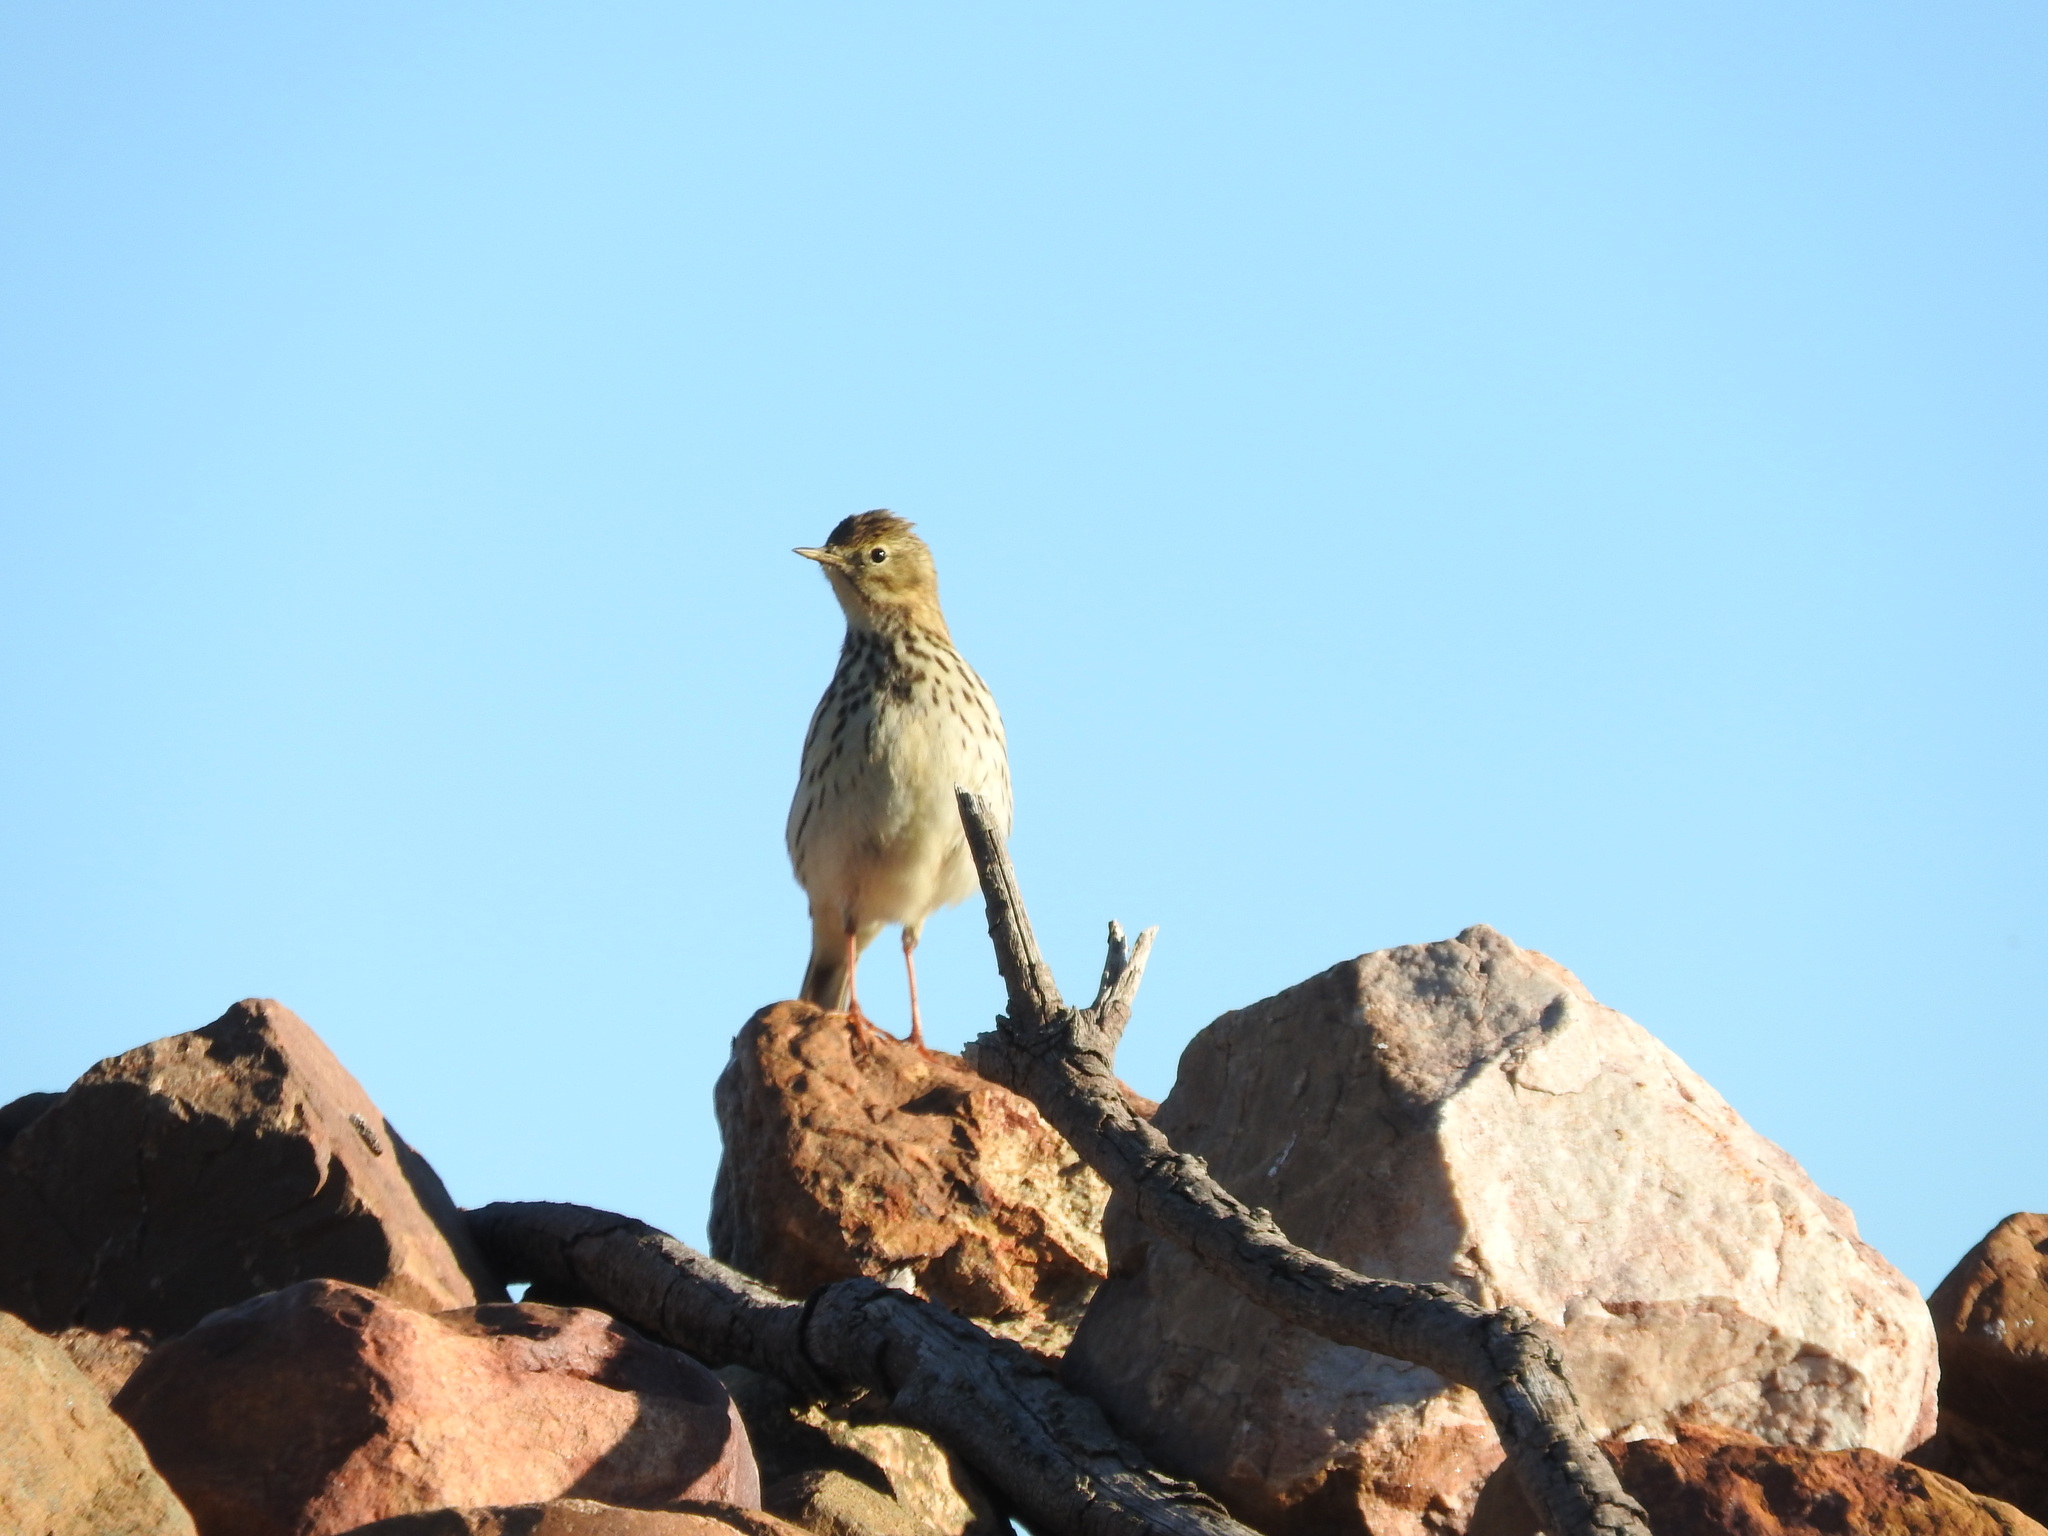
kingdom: Animalia
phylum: Chordata
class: Aves
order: Passeriformes
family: Motacillidae
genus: Anthus
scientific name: Anthus pratensis
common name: Meadow pipit
